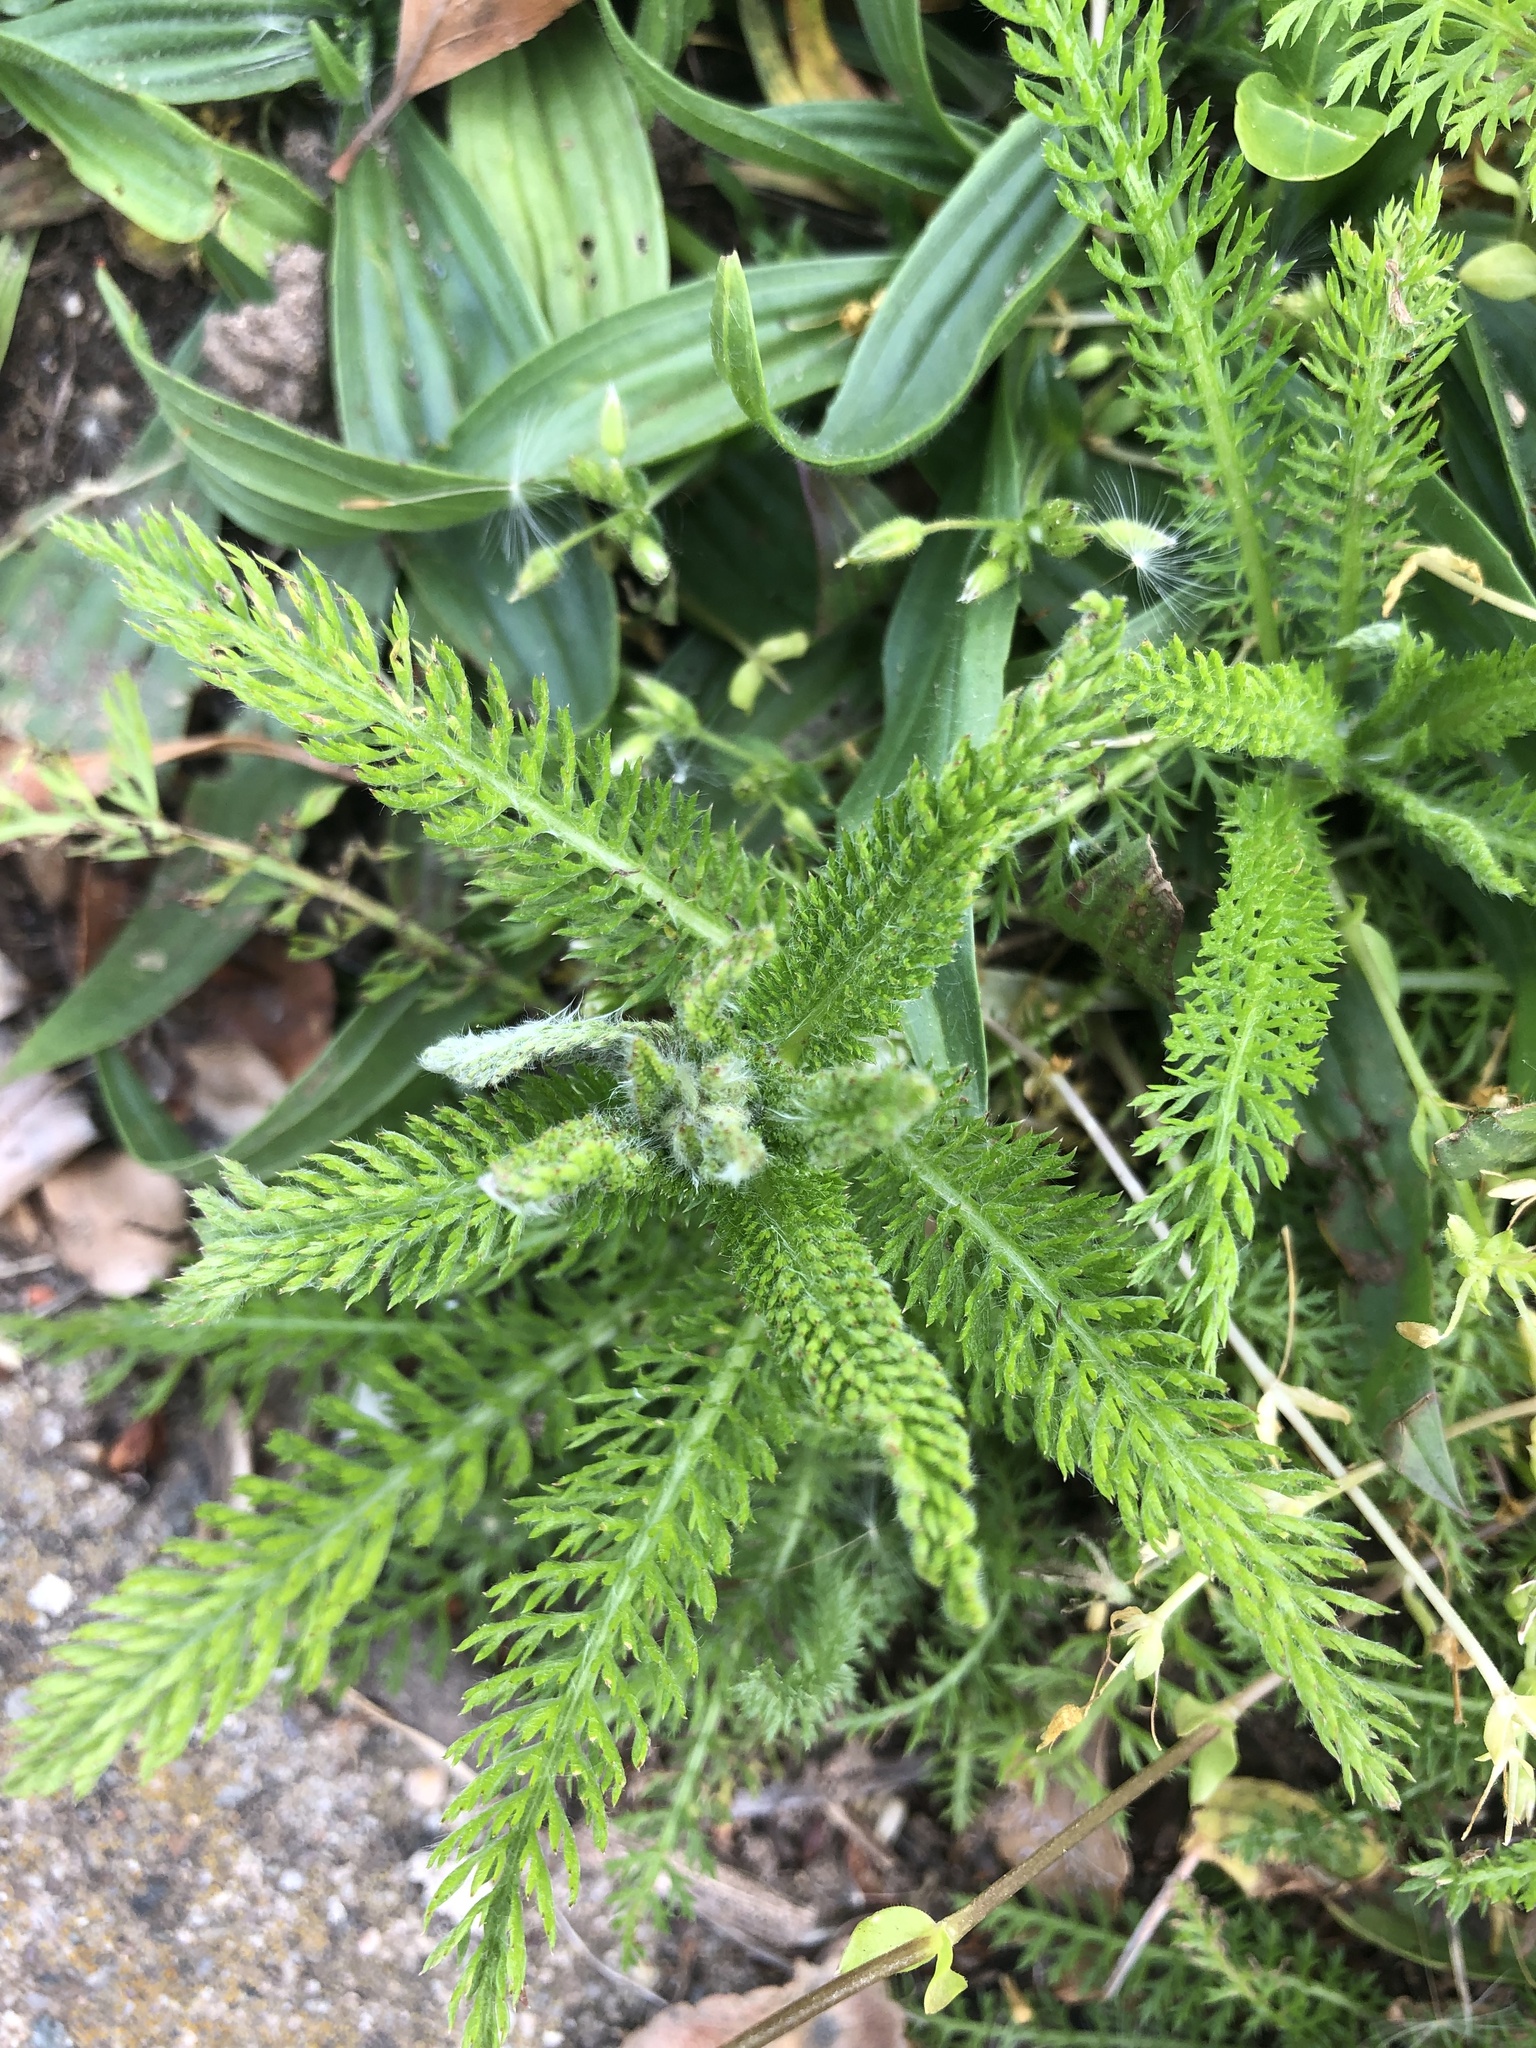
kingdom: Plantae
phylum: Tracheophyta
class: Magnoliopsida
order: Asterales
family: Asteraceae
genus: Achillea
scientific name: Achillea millefolium
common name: Yarrow
